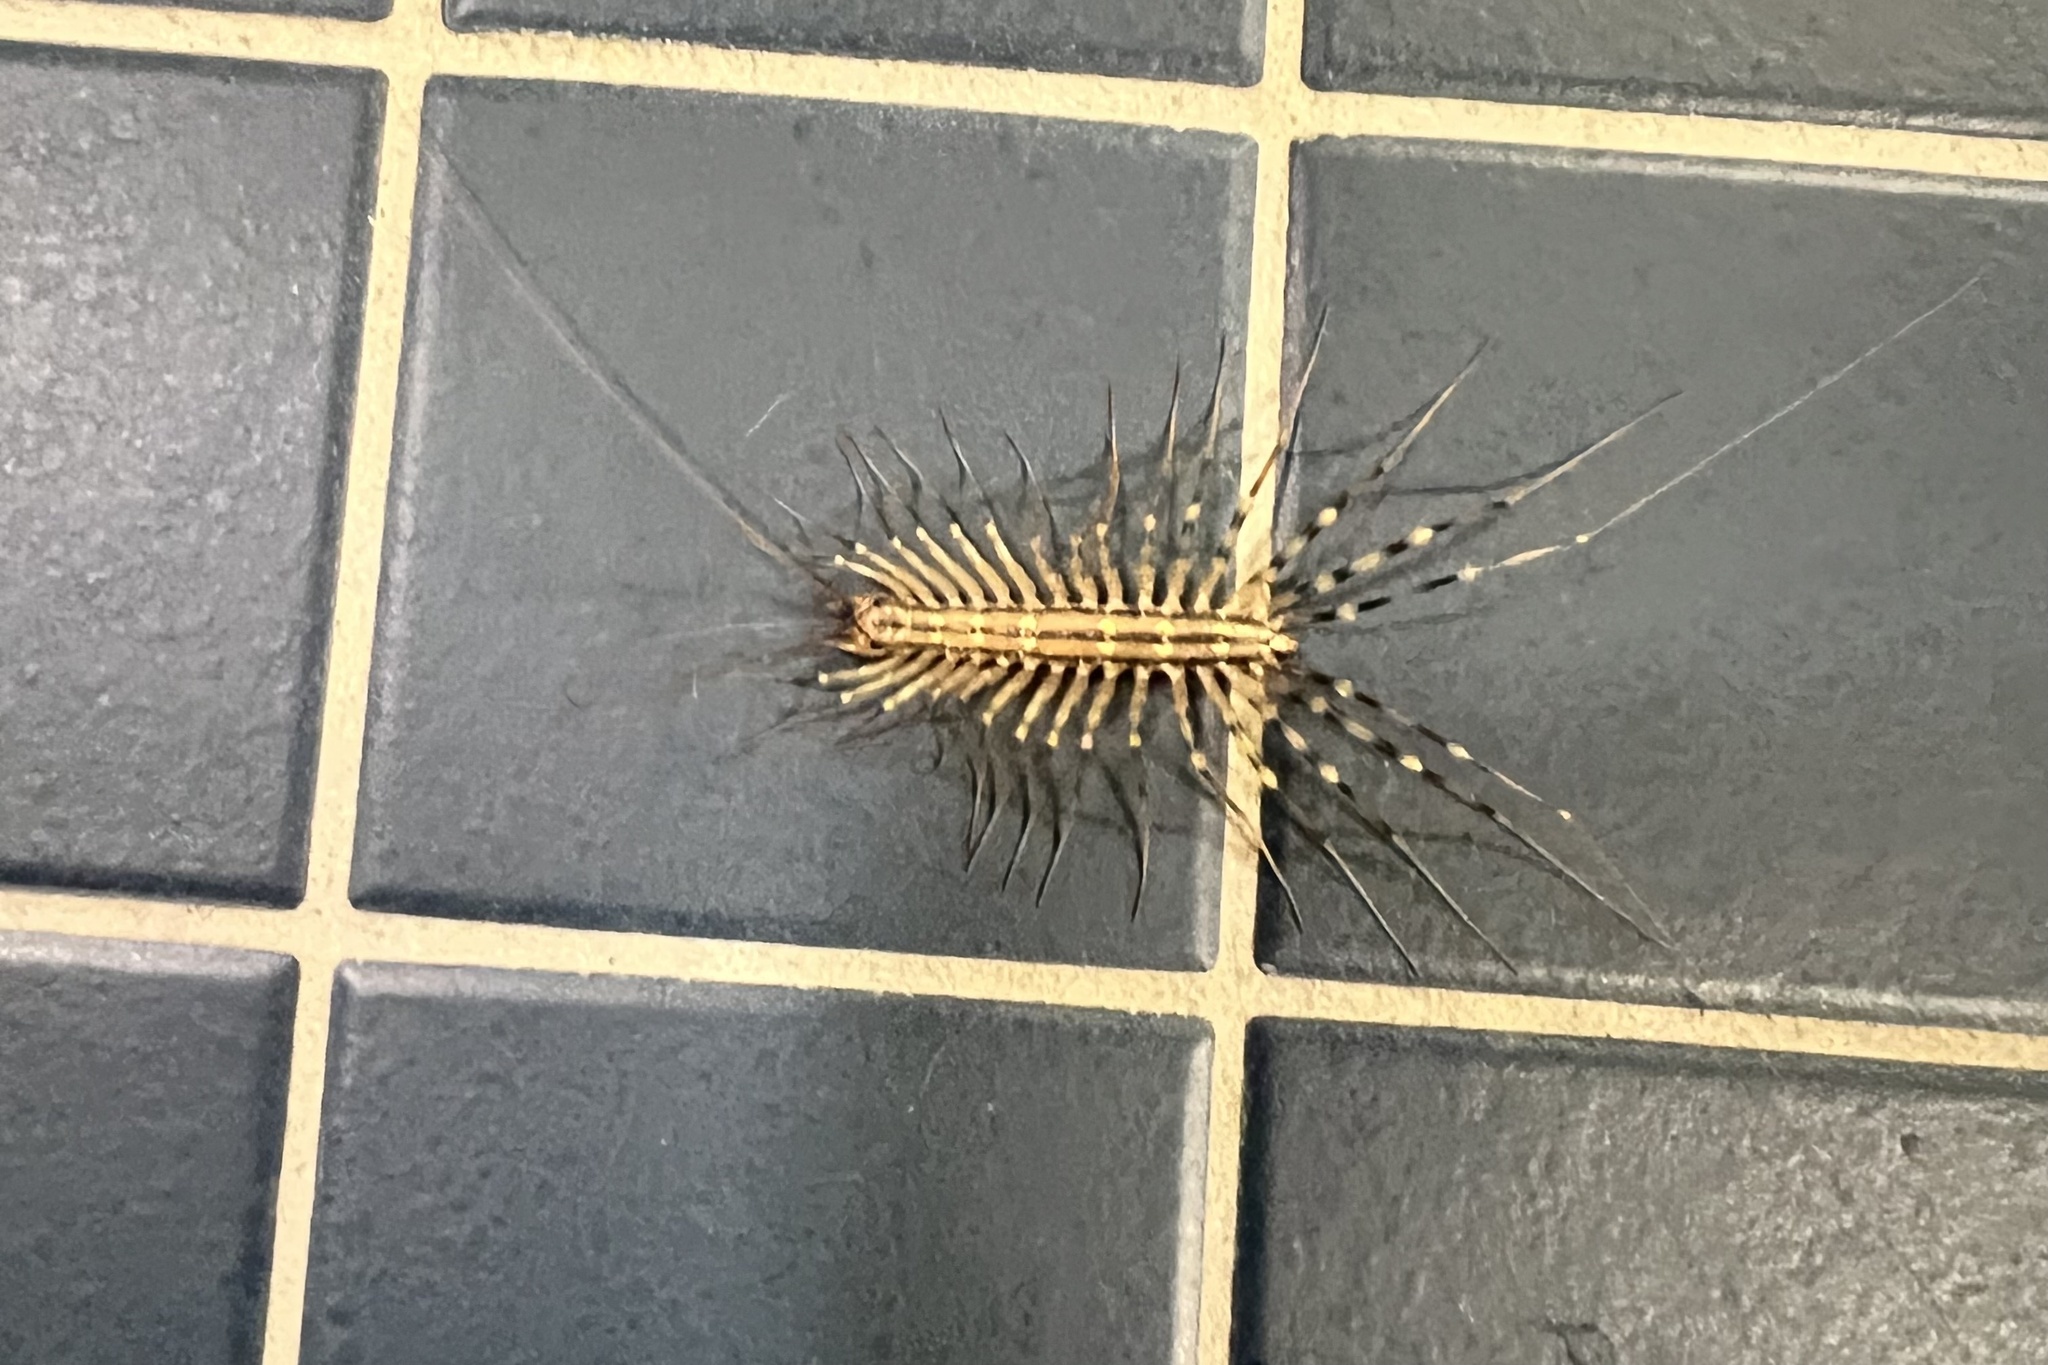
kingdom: Animalia
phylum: Arthropoda
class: Chilopoda
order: Scutigeromorpha
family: Scutigeridae
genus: Scutigera
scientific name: Scutigera coleoptrata
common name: House centipede
